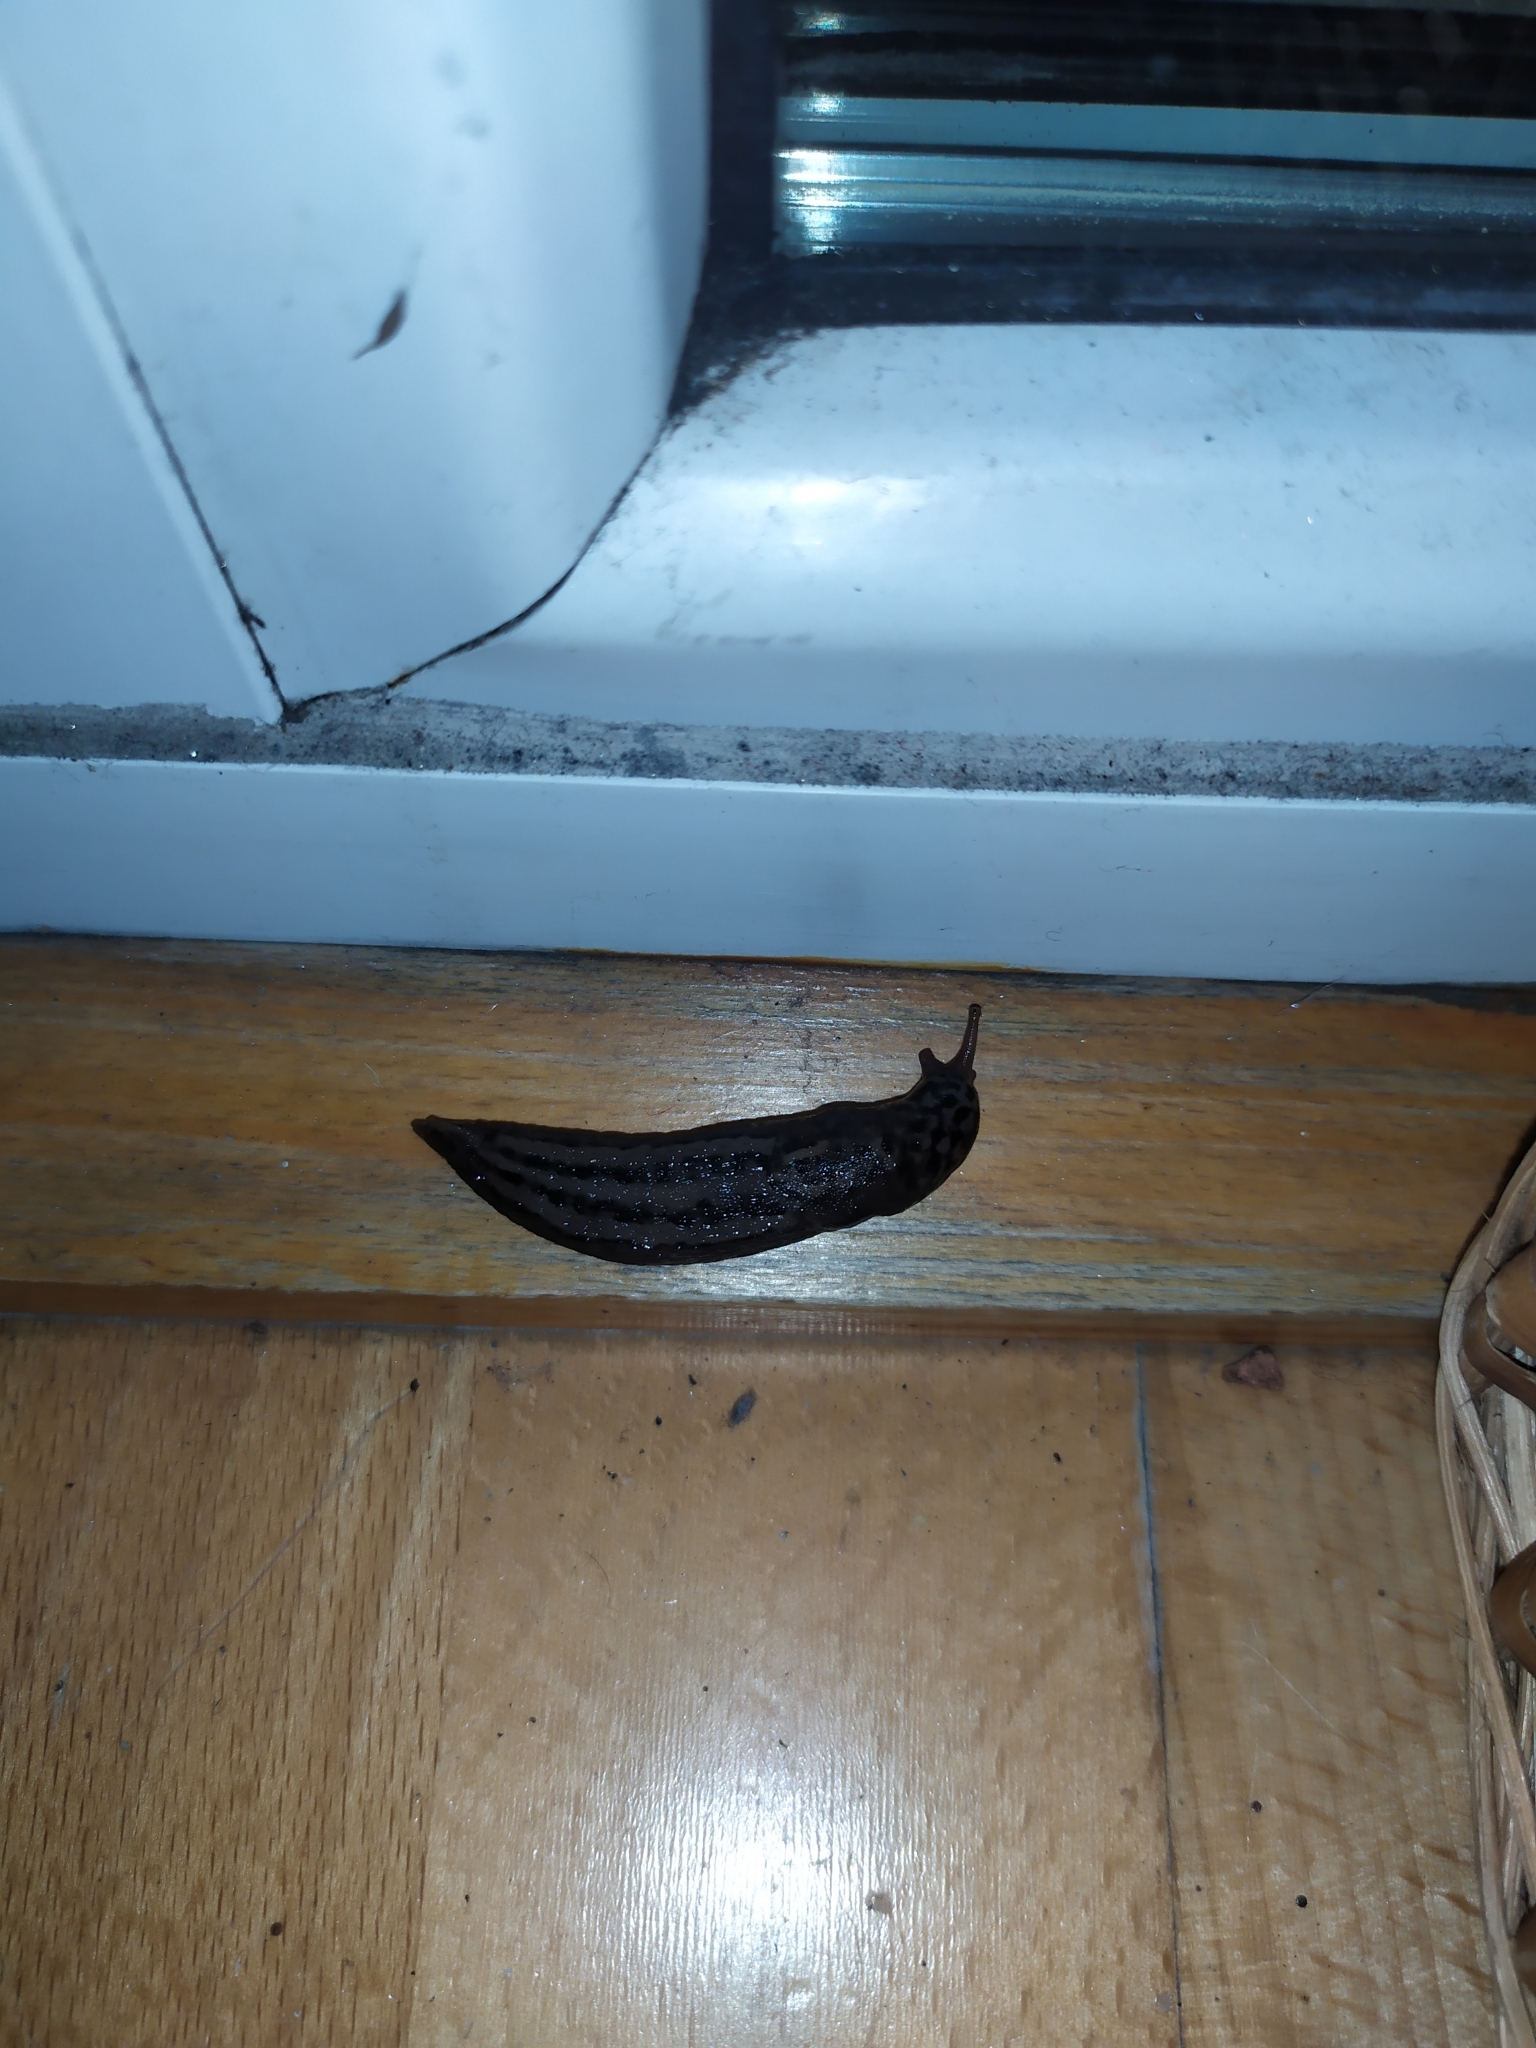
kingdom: Animalia
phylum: Mollusca
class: Gastropoda
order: Stylommatophora
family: Limacidae
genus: Limax
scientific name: Limax maximus
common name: Great grey slug
